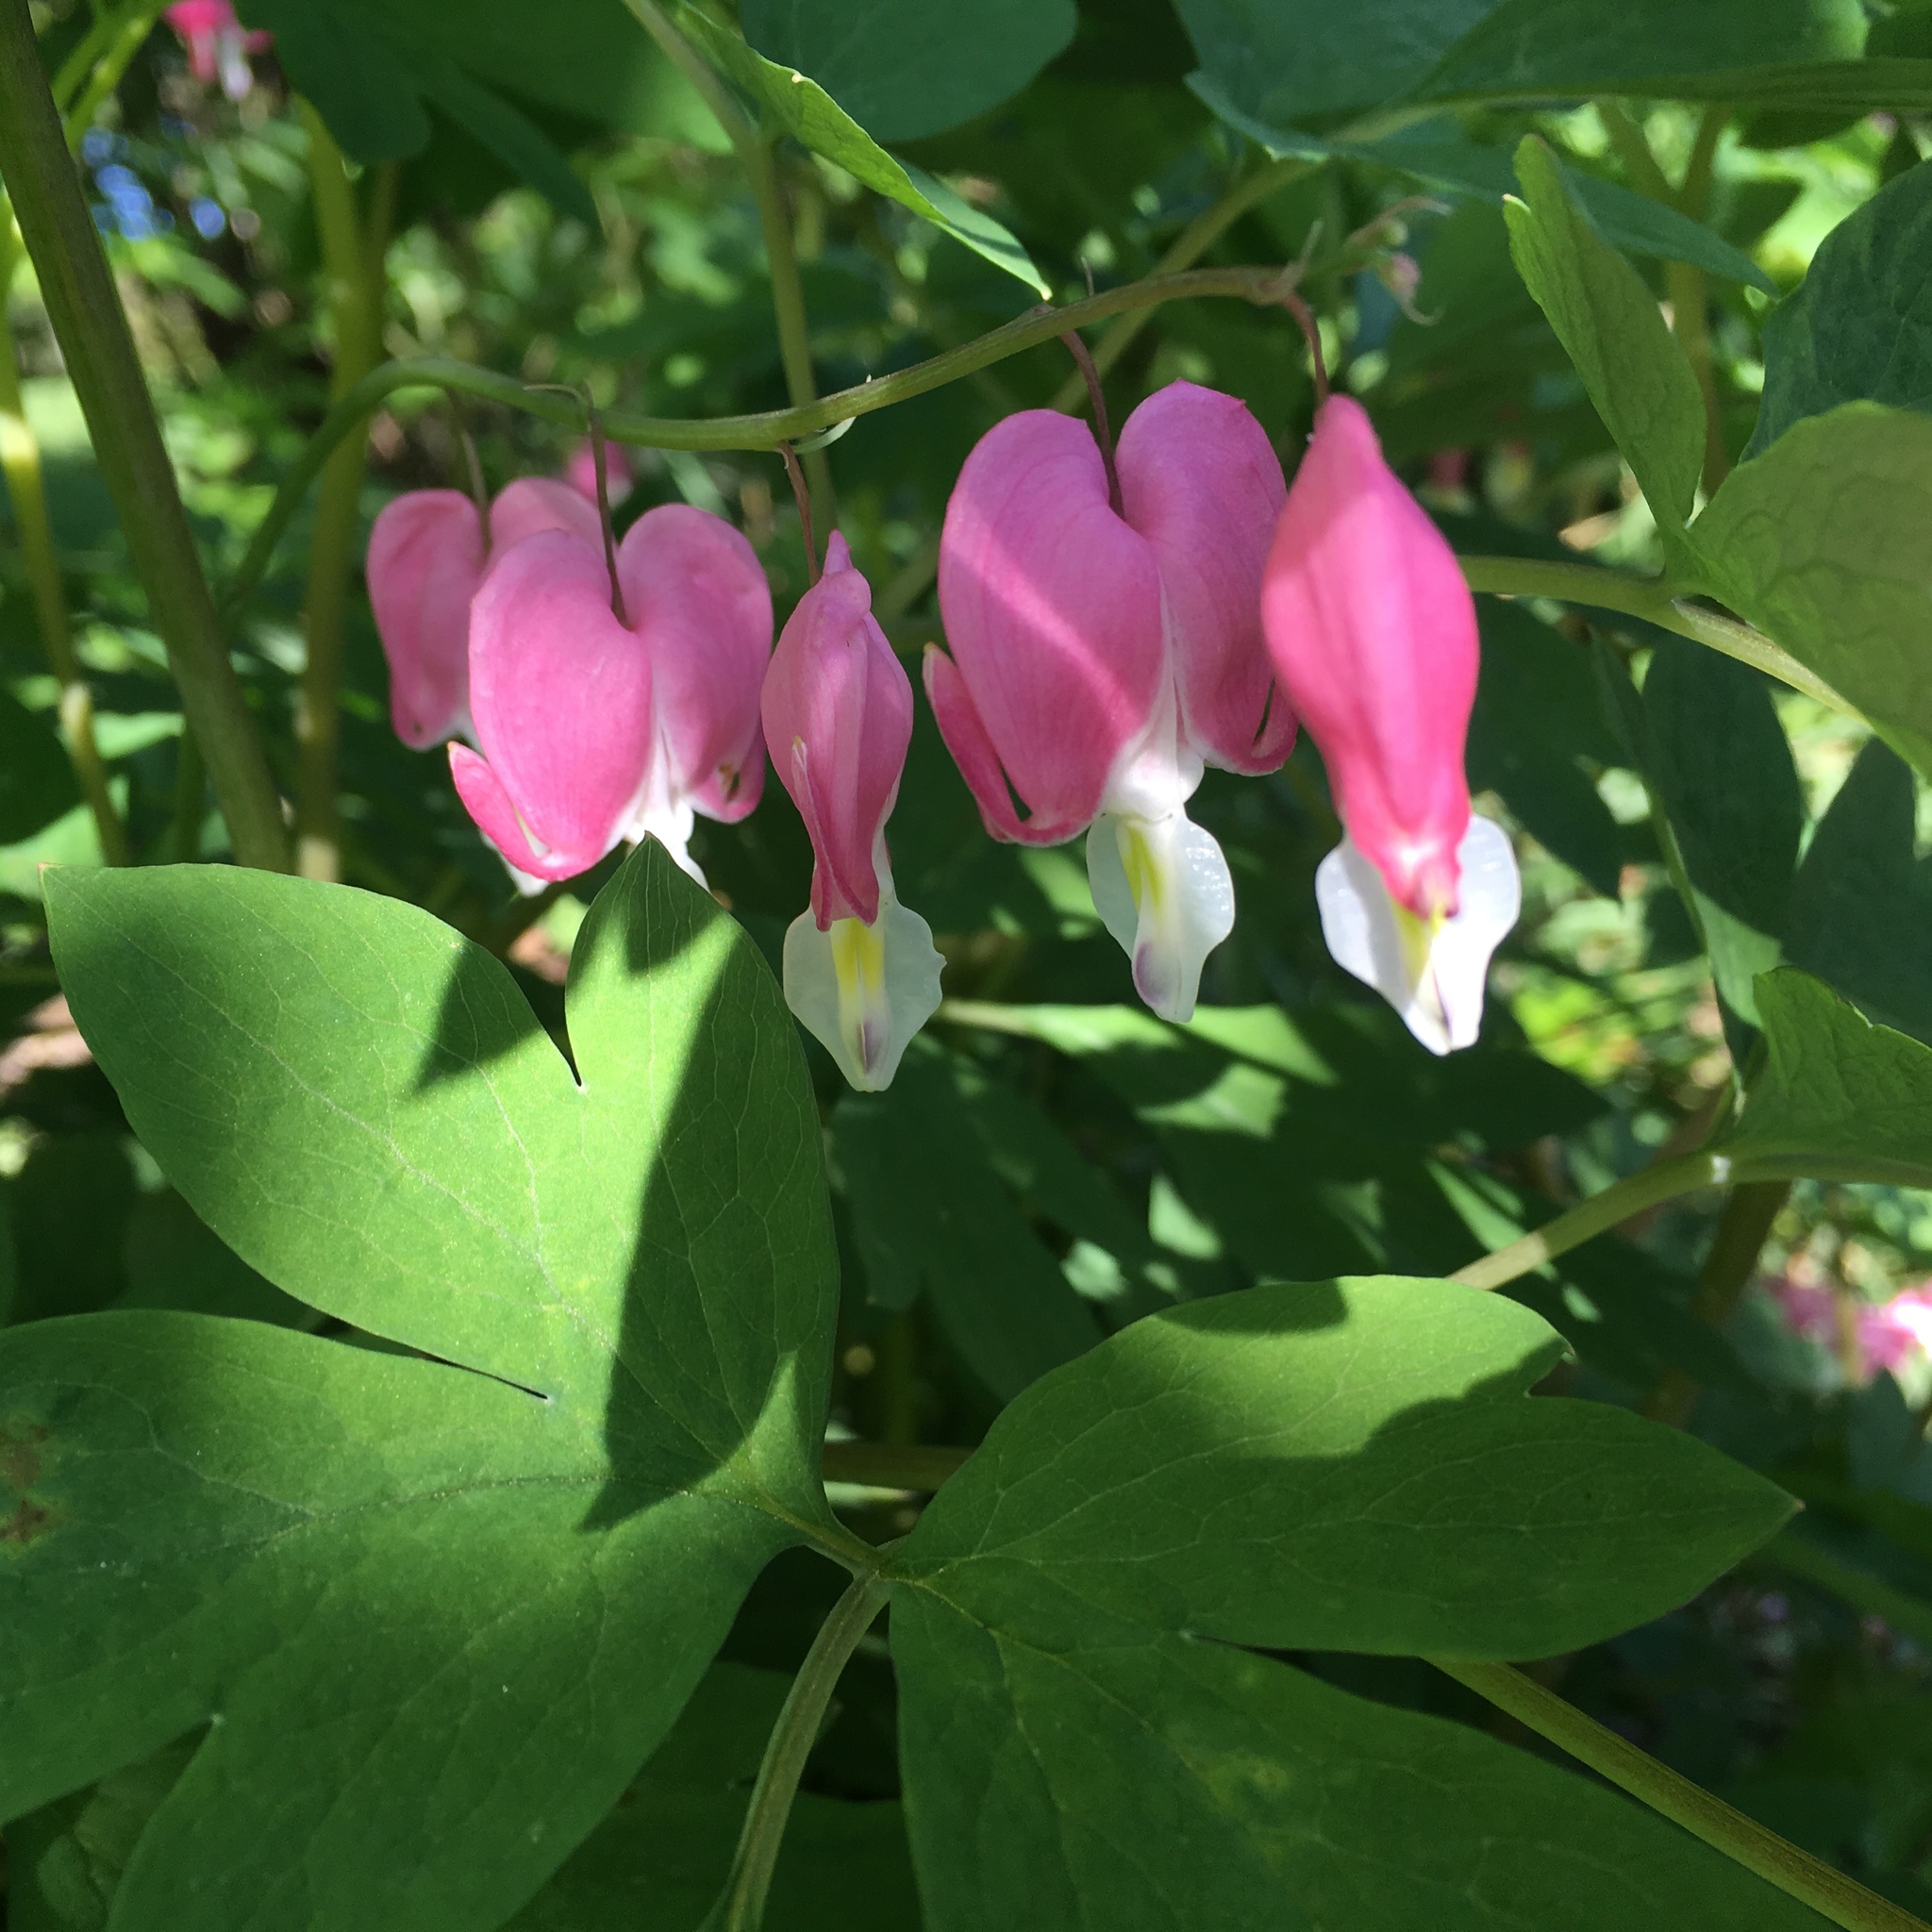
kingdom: Plantae
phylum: Tracheophyta
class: Magnoliopsida
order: Ranunculales
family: Papaveraceae
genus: Lamprocapnos
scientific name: Lamprocapnos spectabilis
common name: Asian bleeding-heart
